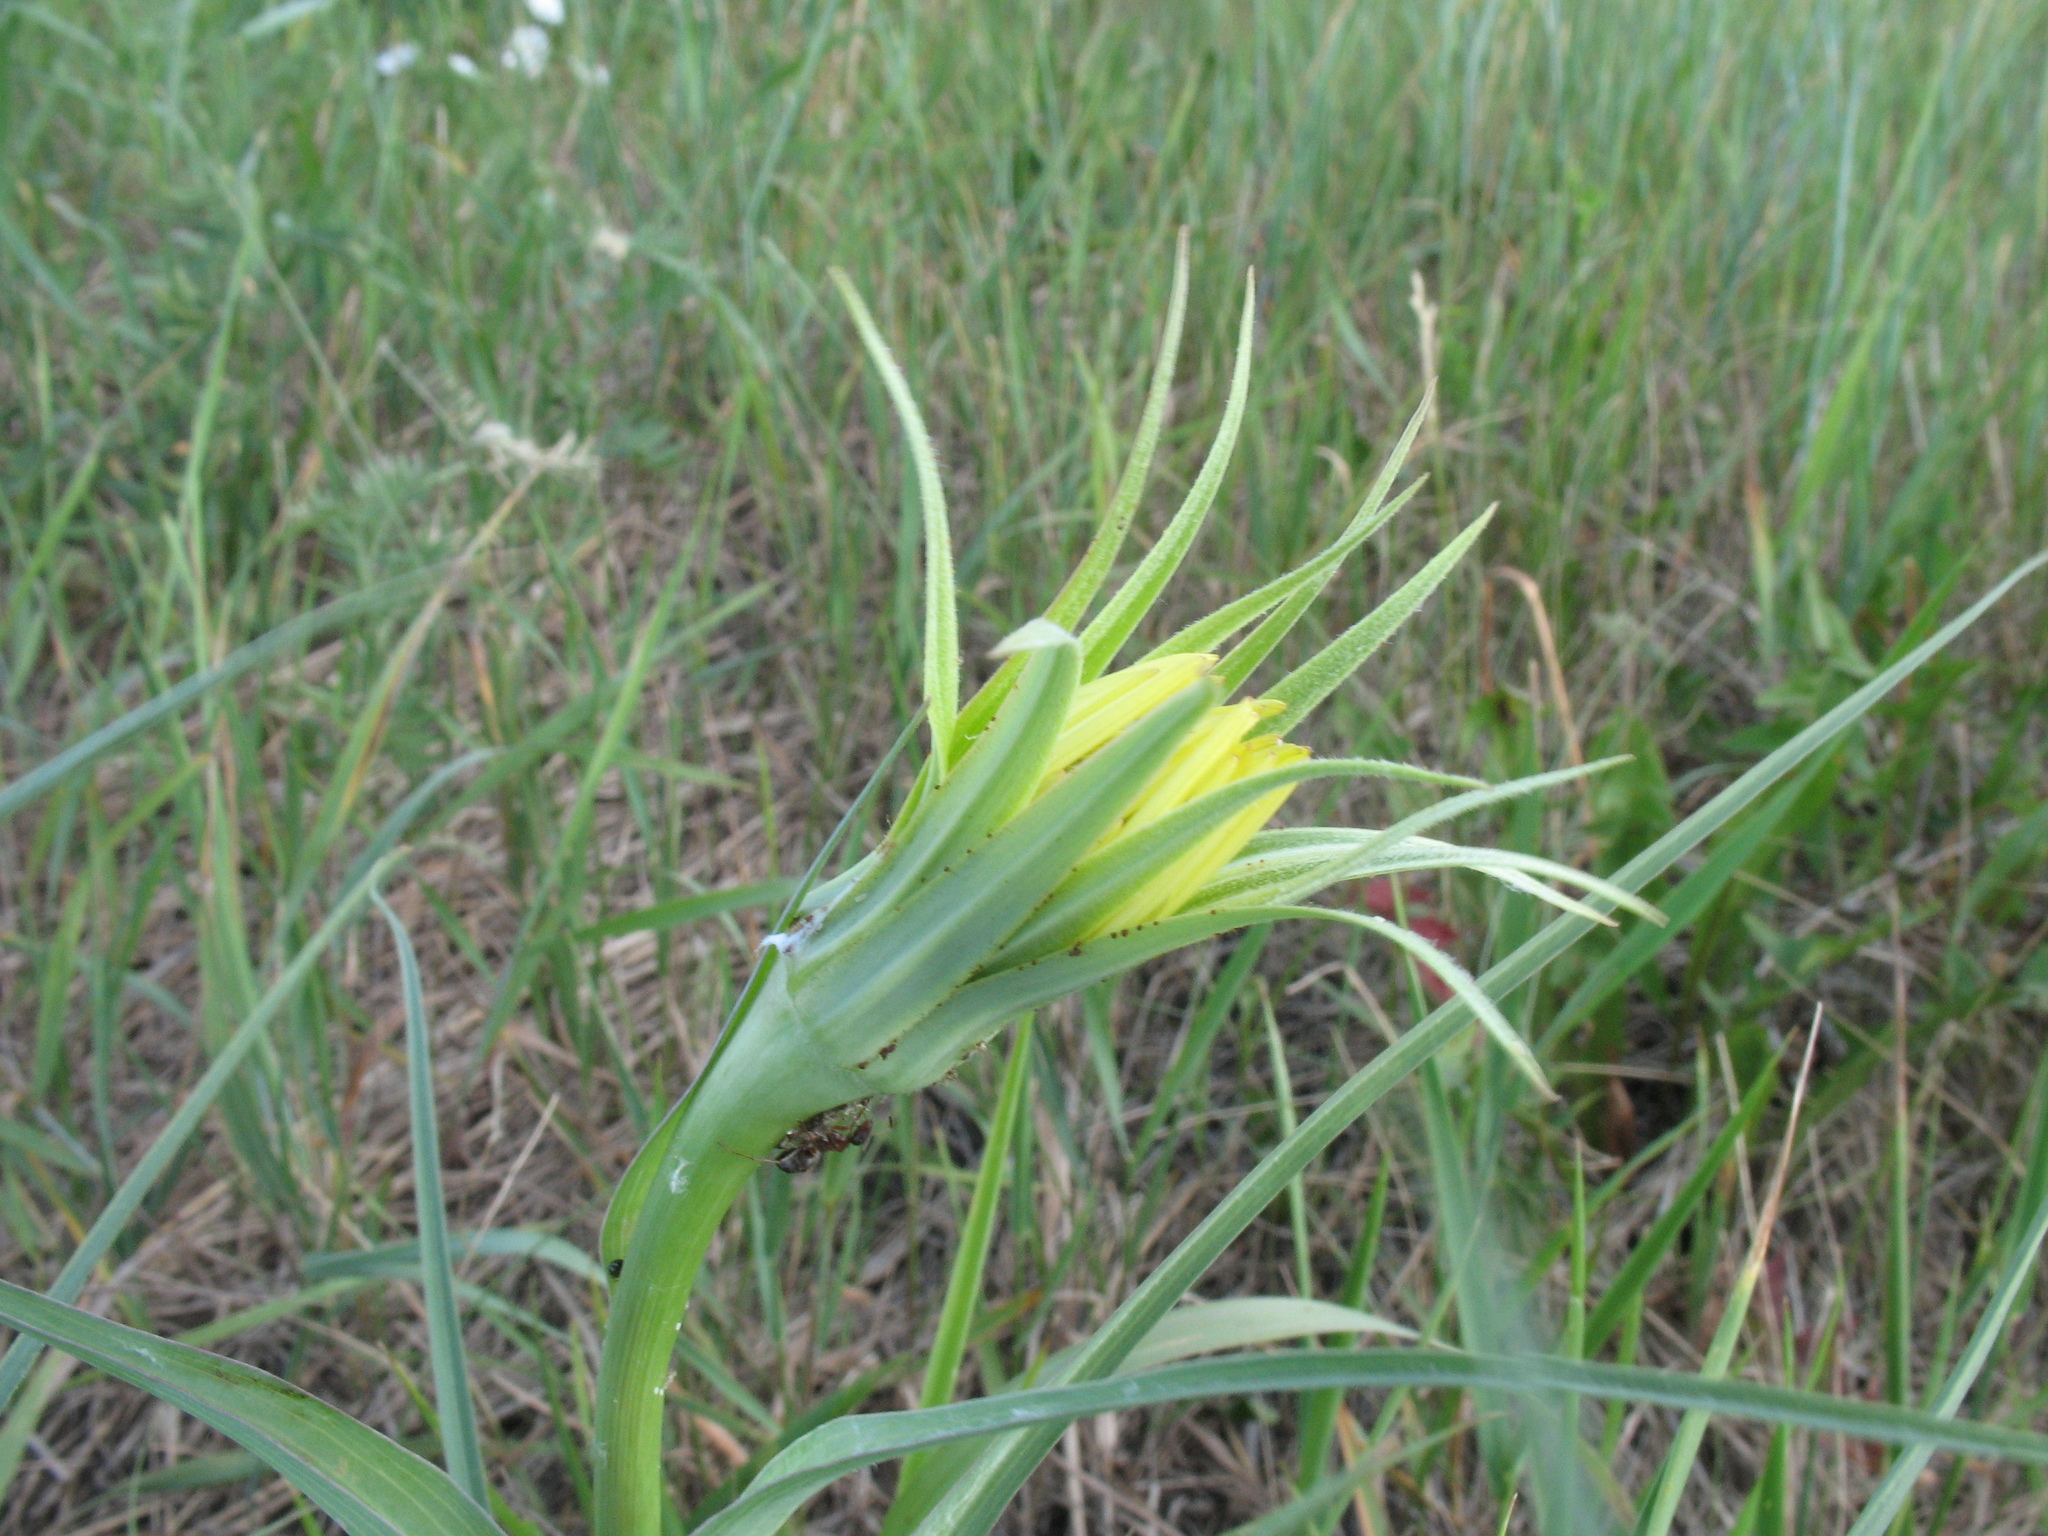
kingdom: Plantae
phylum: Tracheophyta
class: Magnoliopsida
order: Asterales
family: Asteraceae
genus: Tragopogon
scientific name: Tragopogon dubius
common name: Yellow salsify
